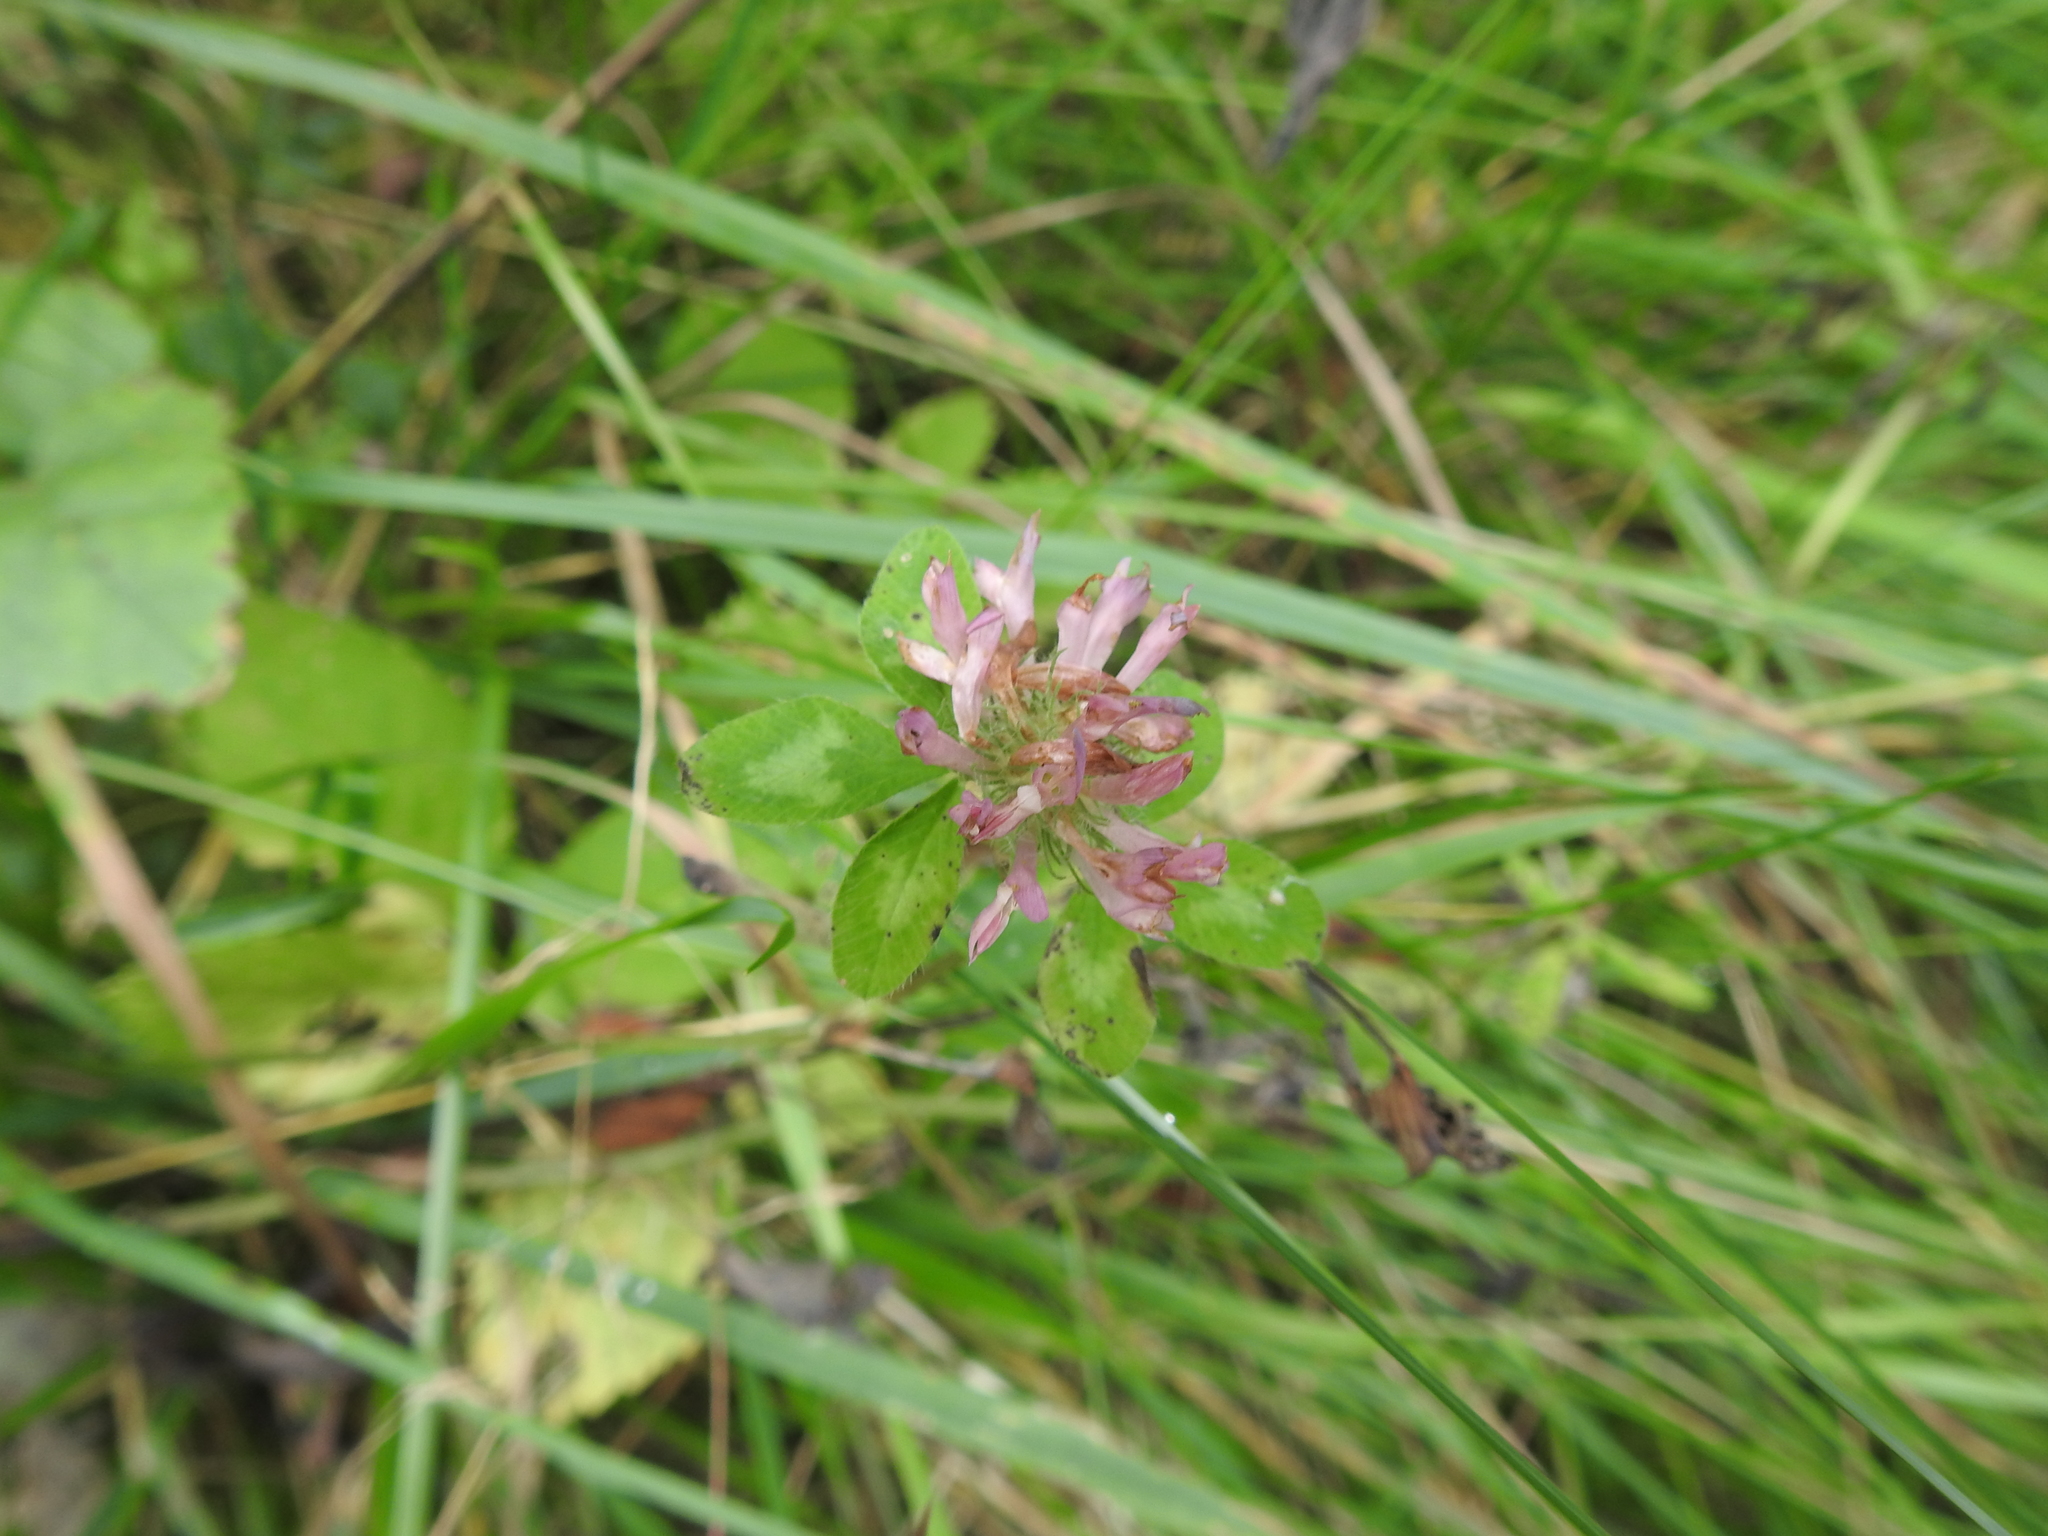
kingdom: Plantae
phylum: Tracheophyta
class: Magnoliopsida
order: Fabales
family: Fabaceae
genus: Trifolium
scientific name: Trifolium pratense
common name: Red clover
